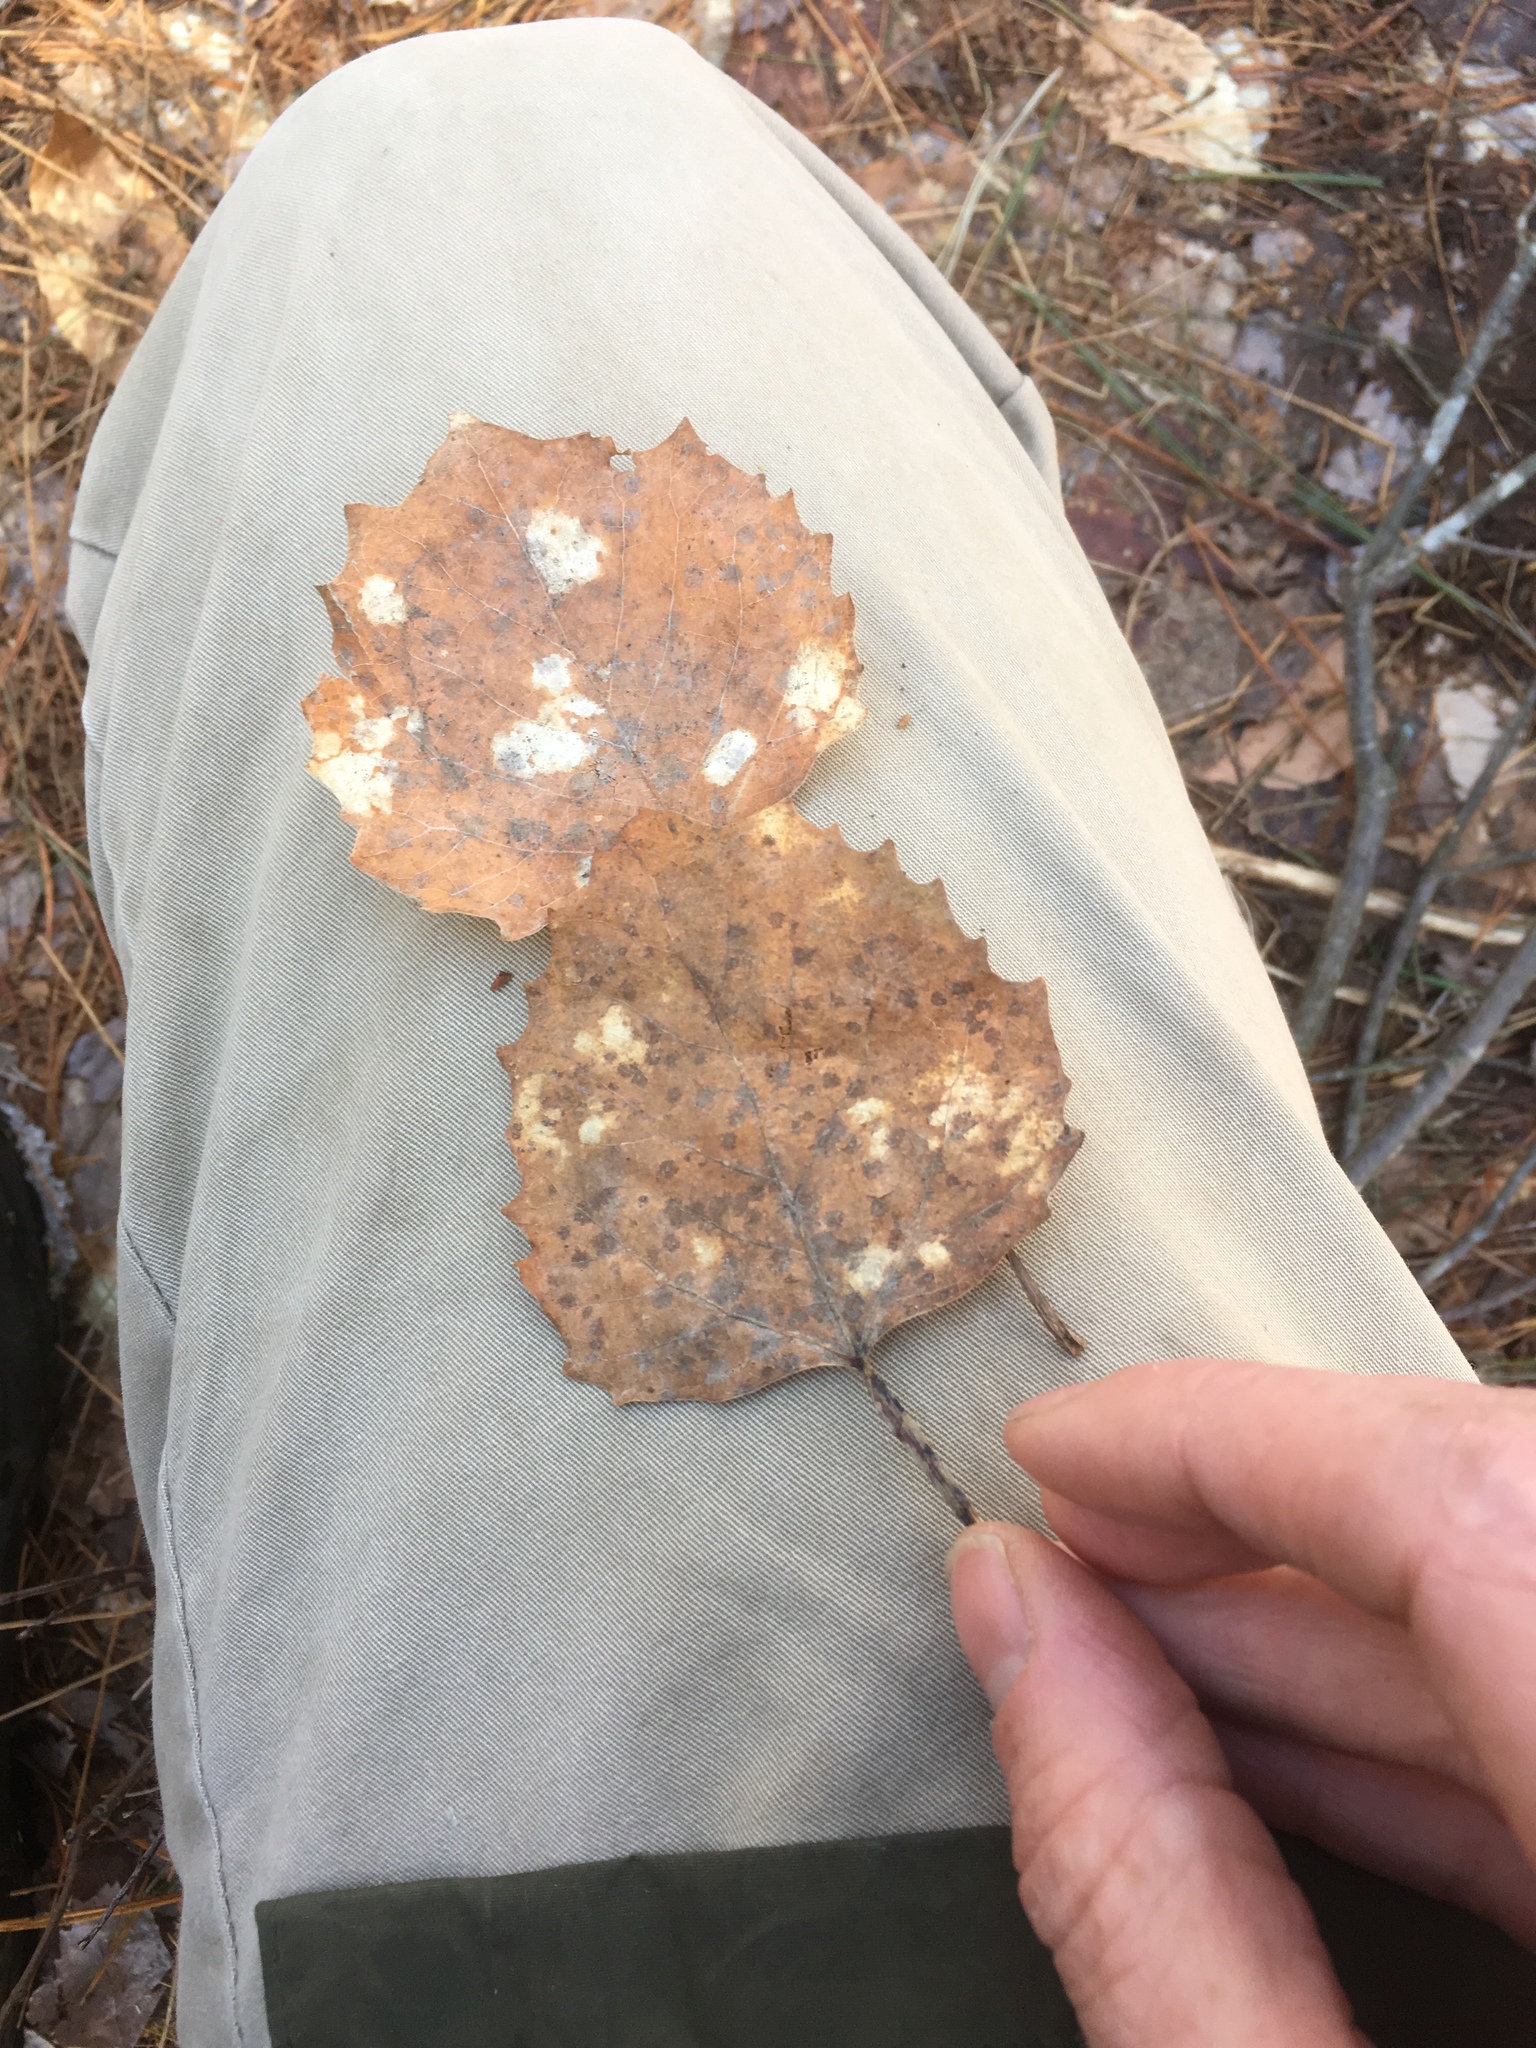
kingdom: Plantae
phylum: Tracheophyta
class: Magnoliopsida
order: Malpighiales
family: Salicaceae
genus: Populus
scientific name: Populus grandidentata
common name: Bigtooth aspen
